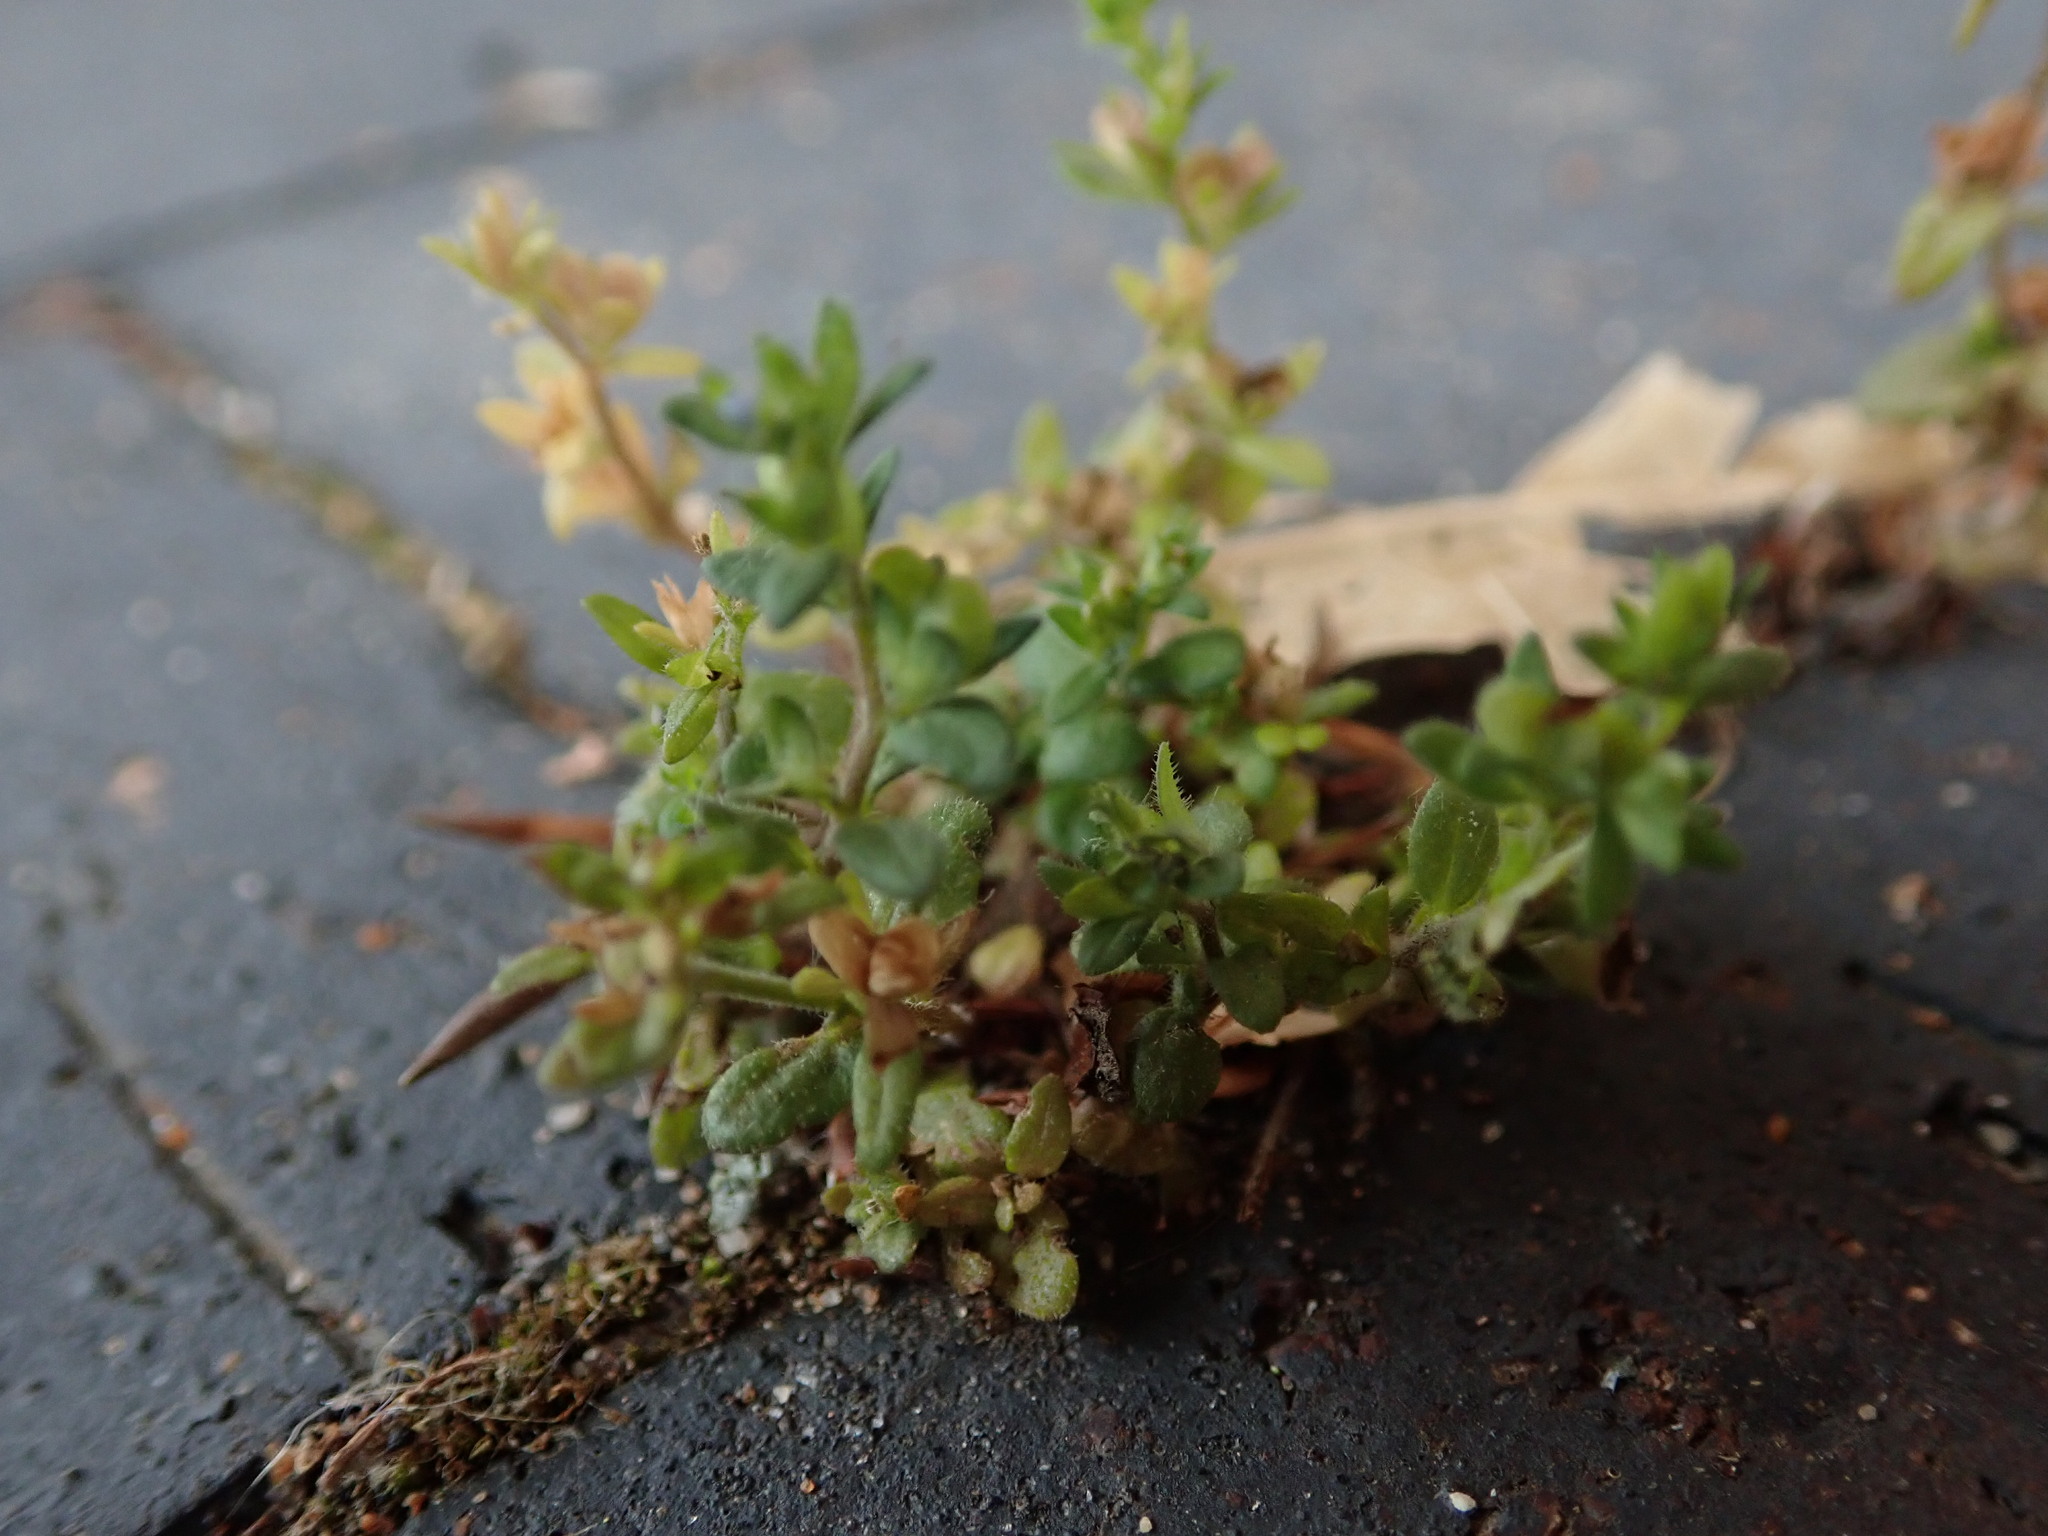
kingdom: Plantae
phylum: Tracheophyta
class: Magnoliopsida
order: Lamiales
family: Plantaginaceae
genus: Veronica
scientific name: Veronica arvensis
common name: Corn speedwell
